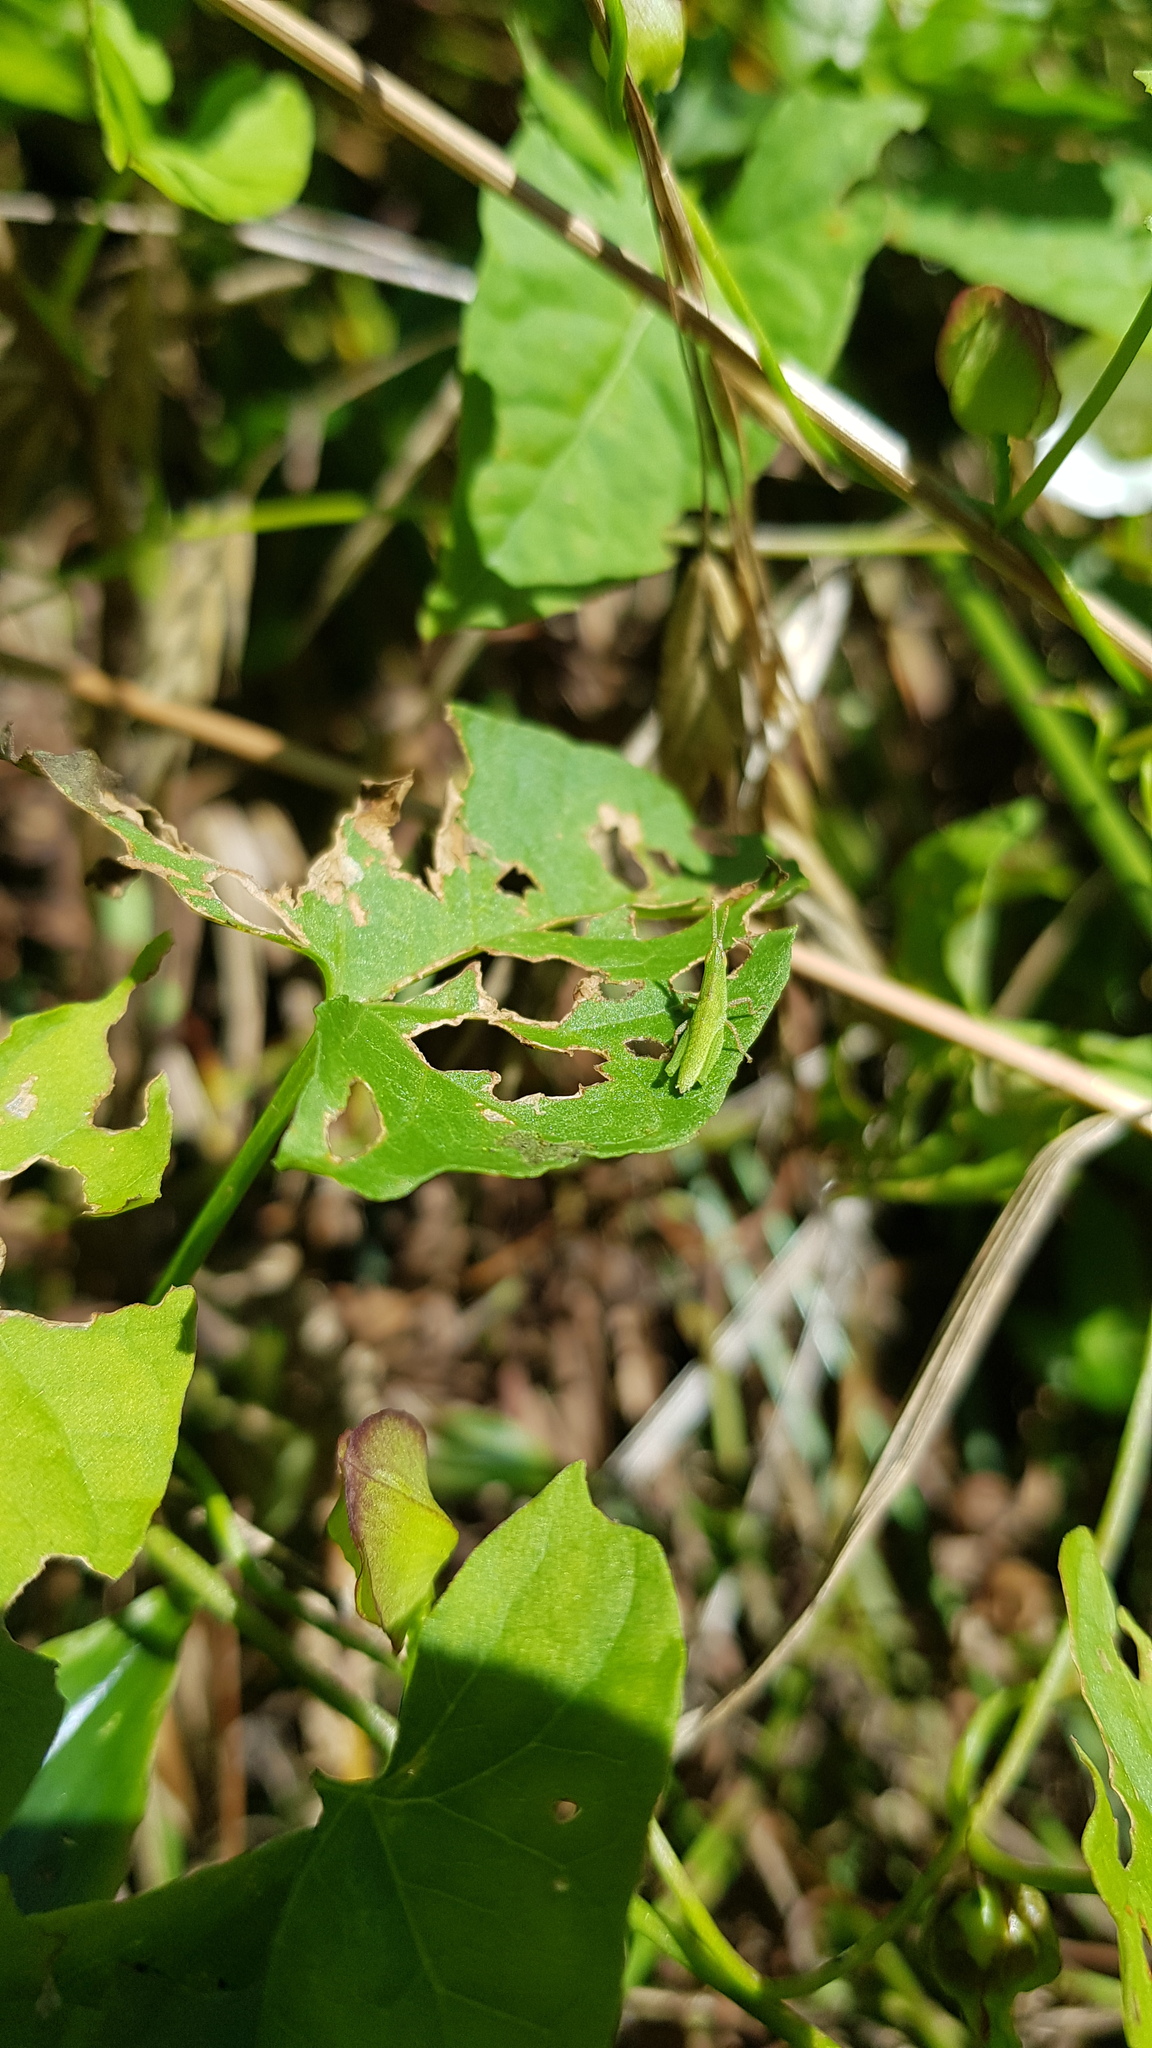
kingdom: Animalia
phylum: Arthropoda
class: Insecta
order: Orthoptera
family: Pyrgomorphidae
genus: Atractomorpha
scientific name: Atractomorpha australis
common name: Australian grass pyrgomorph
